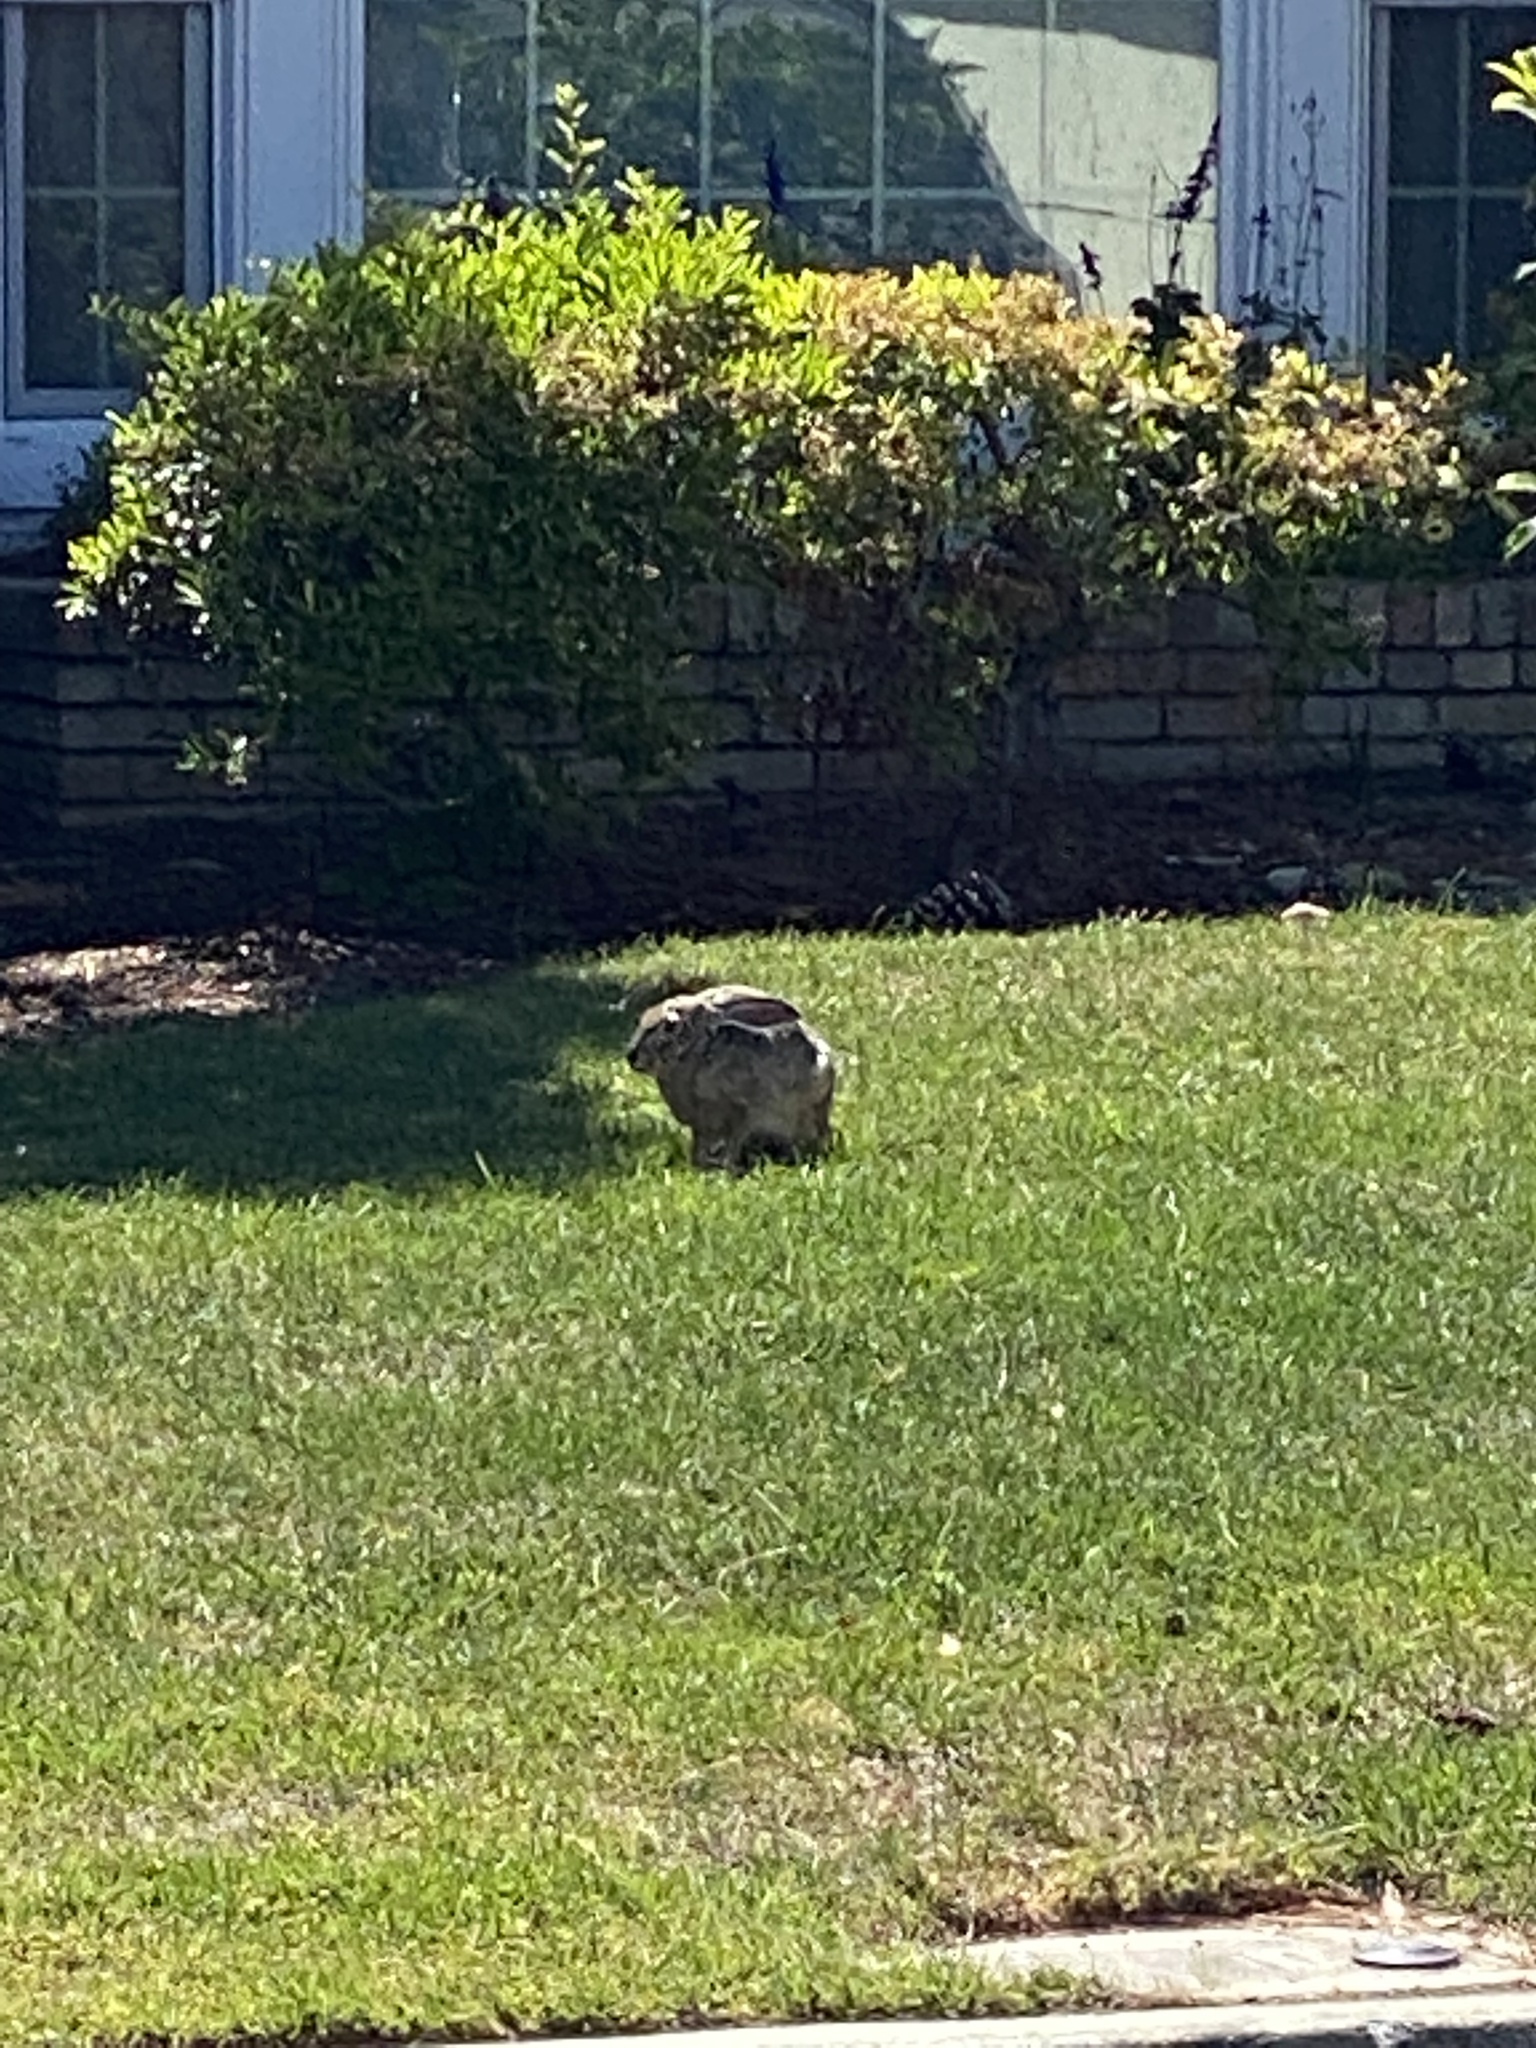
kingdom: Animalia
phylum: Chordata
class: Mammalia
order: Lagomorpha
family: Leporidae
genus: Lepus
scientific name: Lepus californicus
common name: Black-tailed jackrabbit
